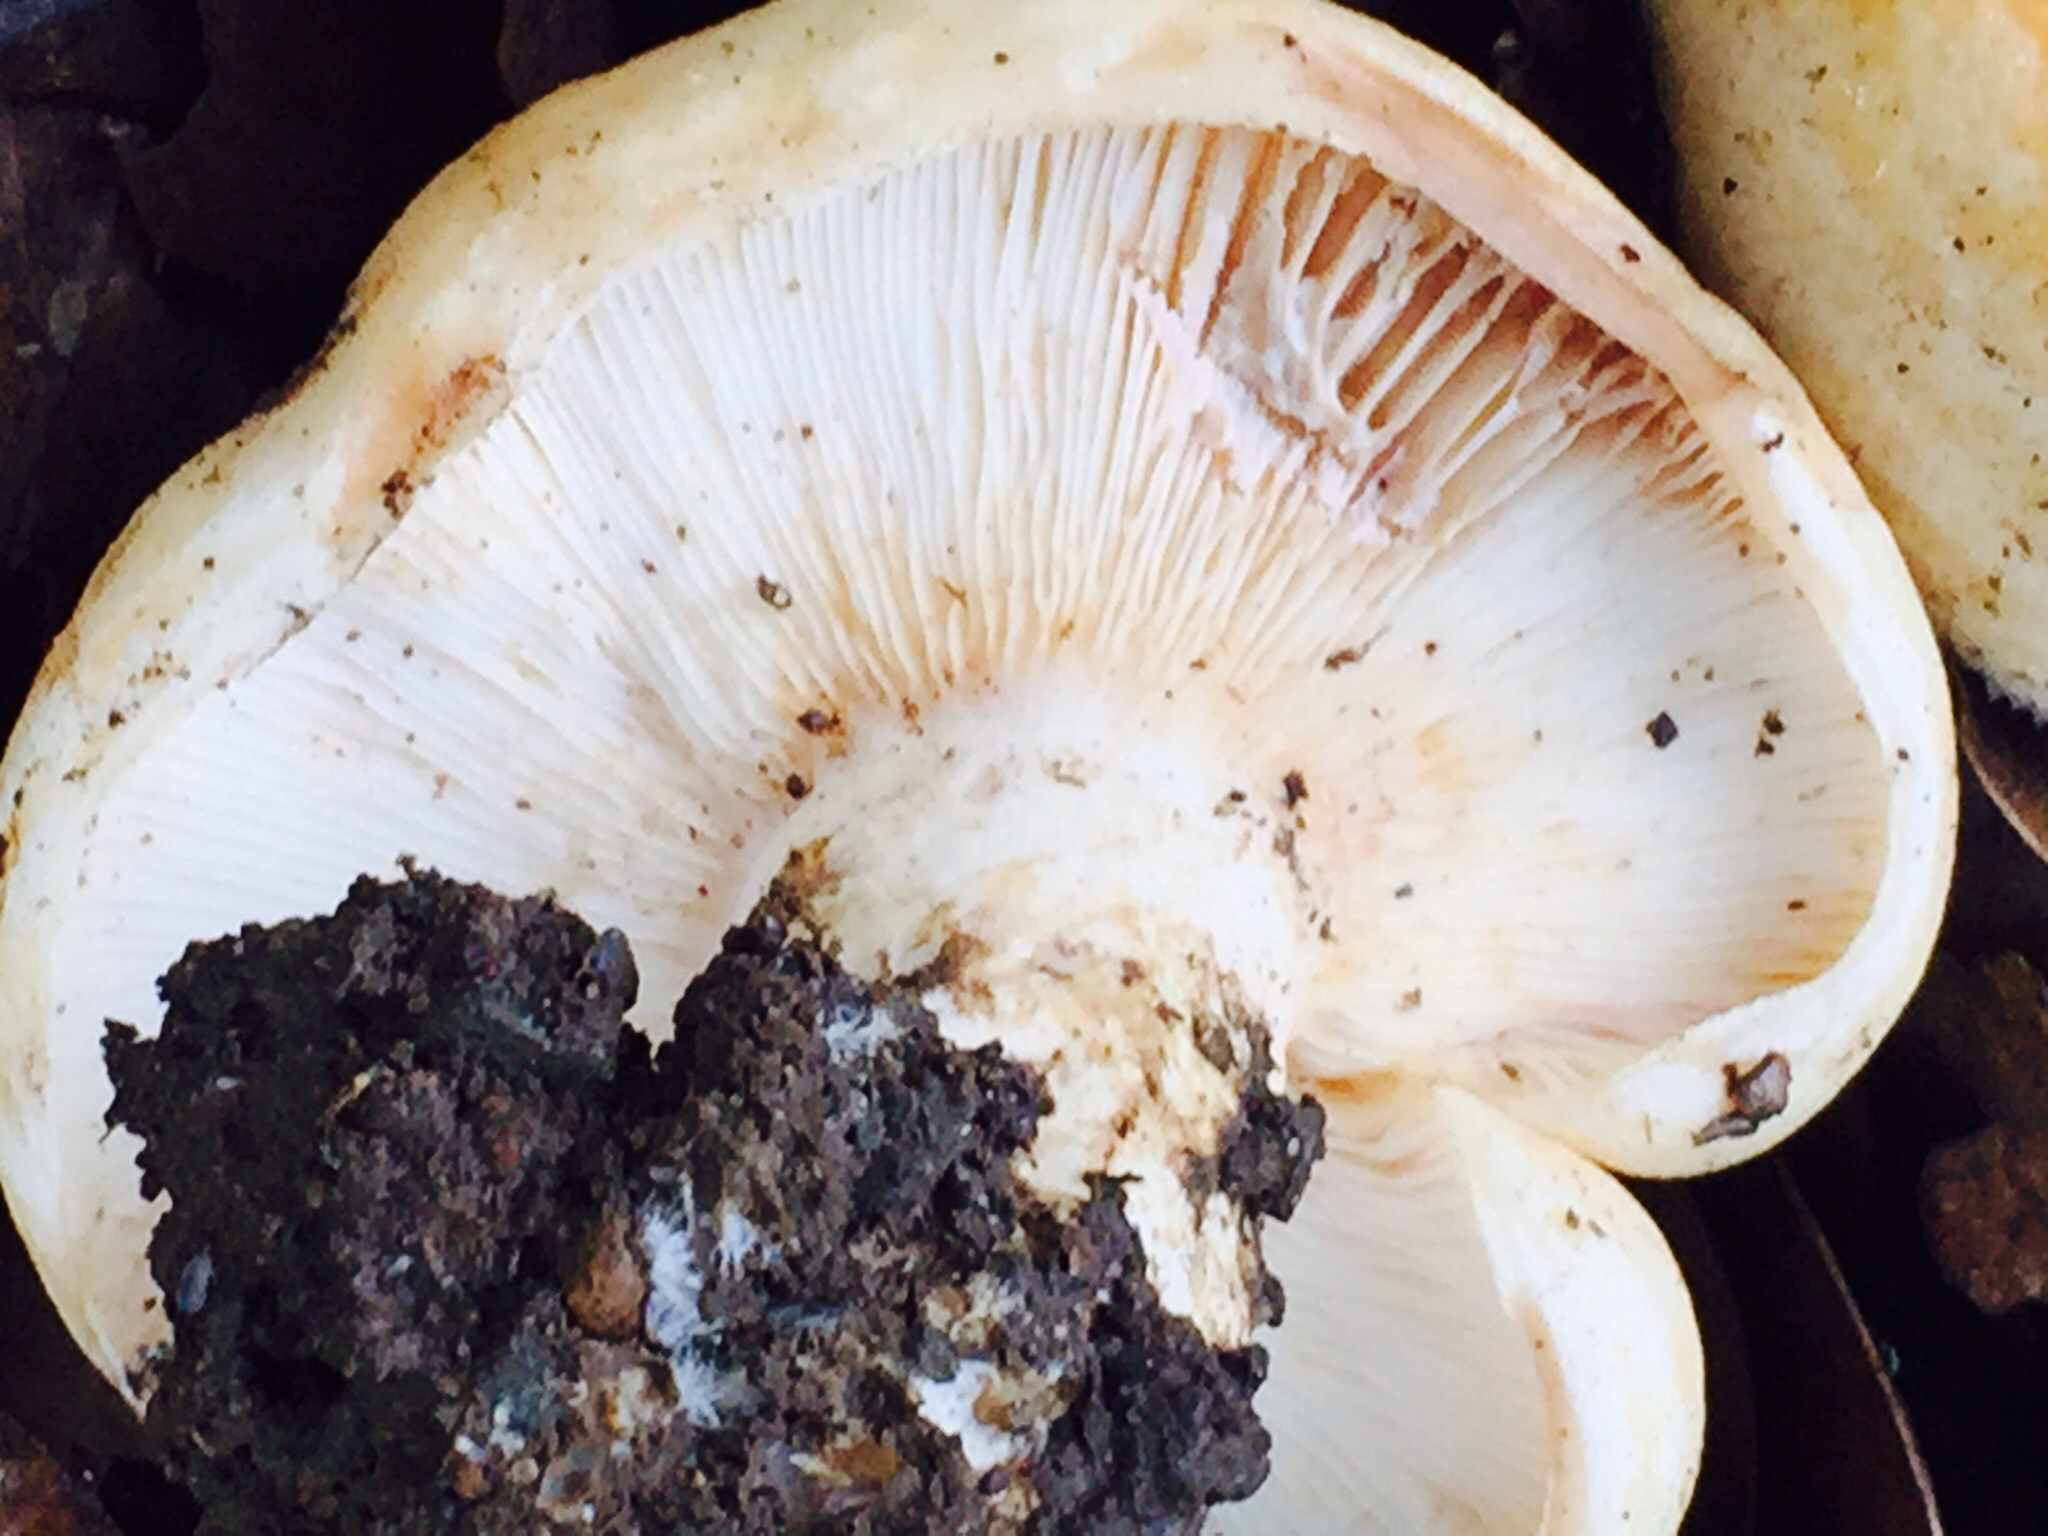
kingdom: Fungi
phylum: Basidiomycota
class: Agaricomycetes
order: Russulales
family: Russulaceae
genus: Lactarius
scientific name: Lactarius alnicola
